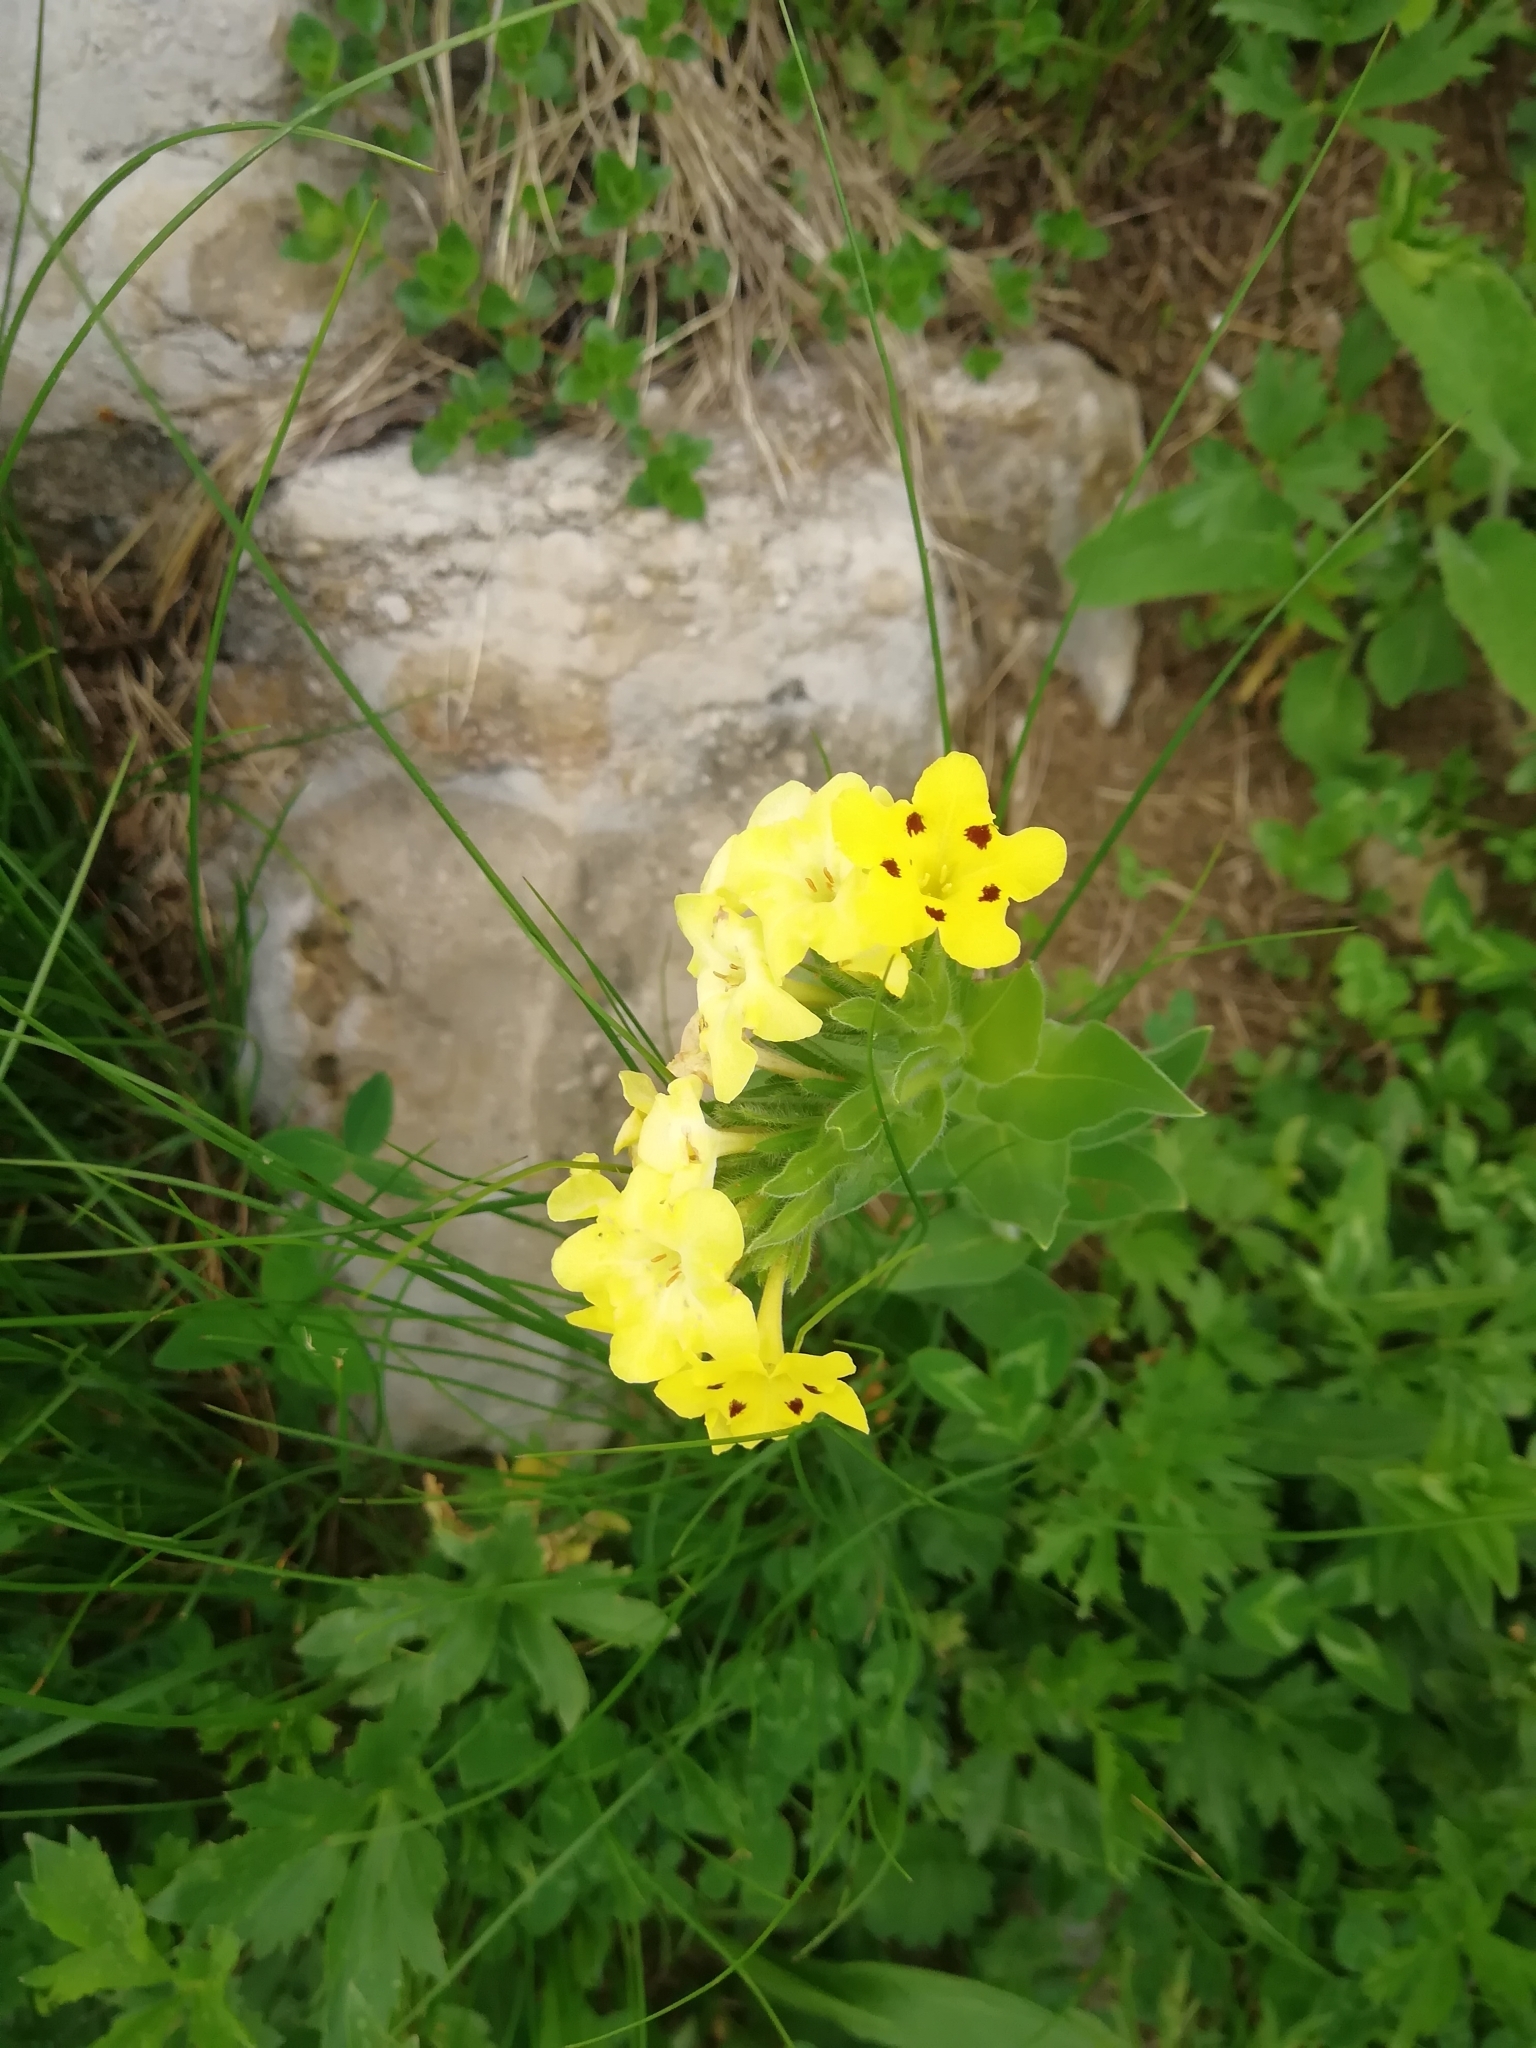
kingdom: Plantae
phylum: Tracheophyta
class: Magnoliopsida
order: Boraginales
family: Boraginaceae
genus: Huynhia
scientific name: Huynhia pulchra
